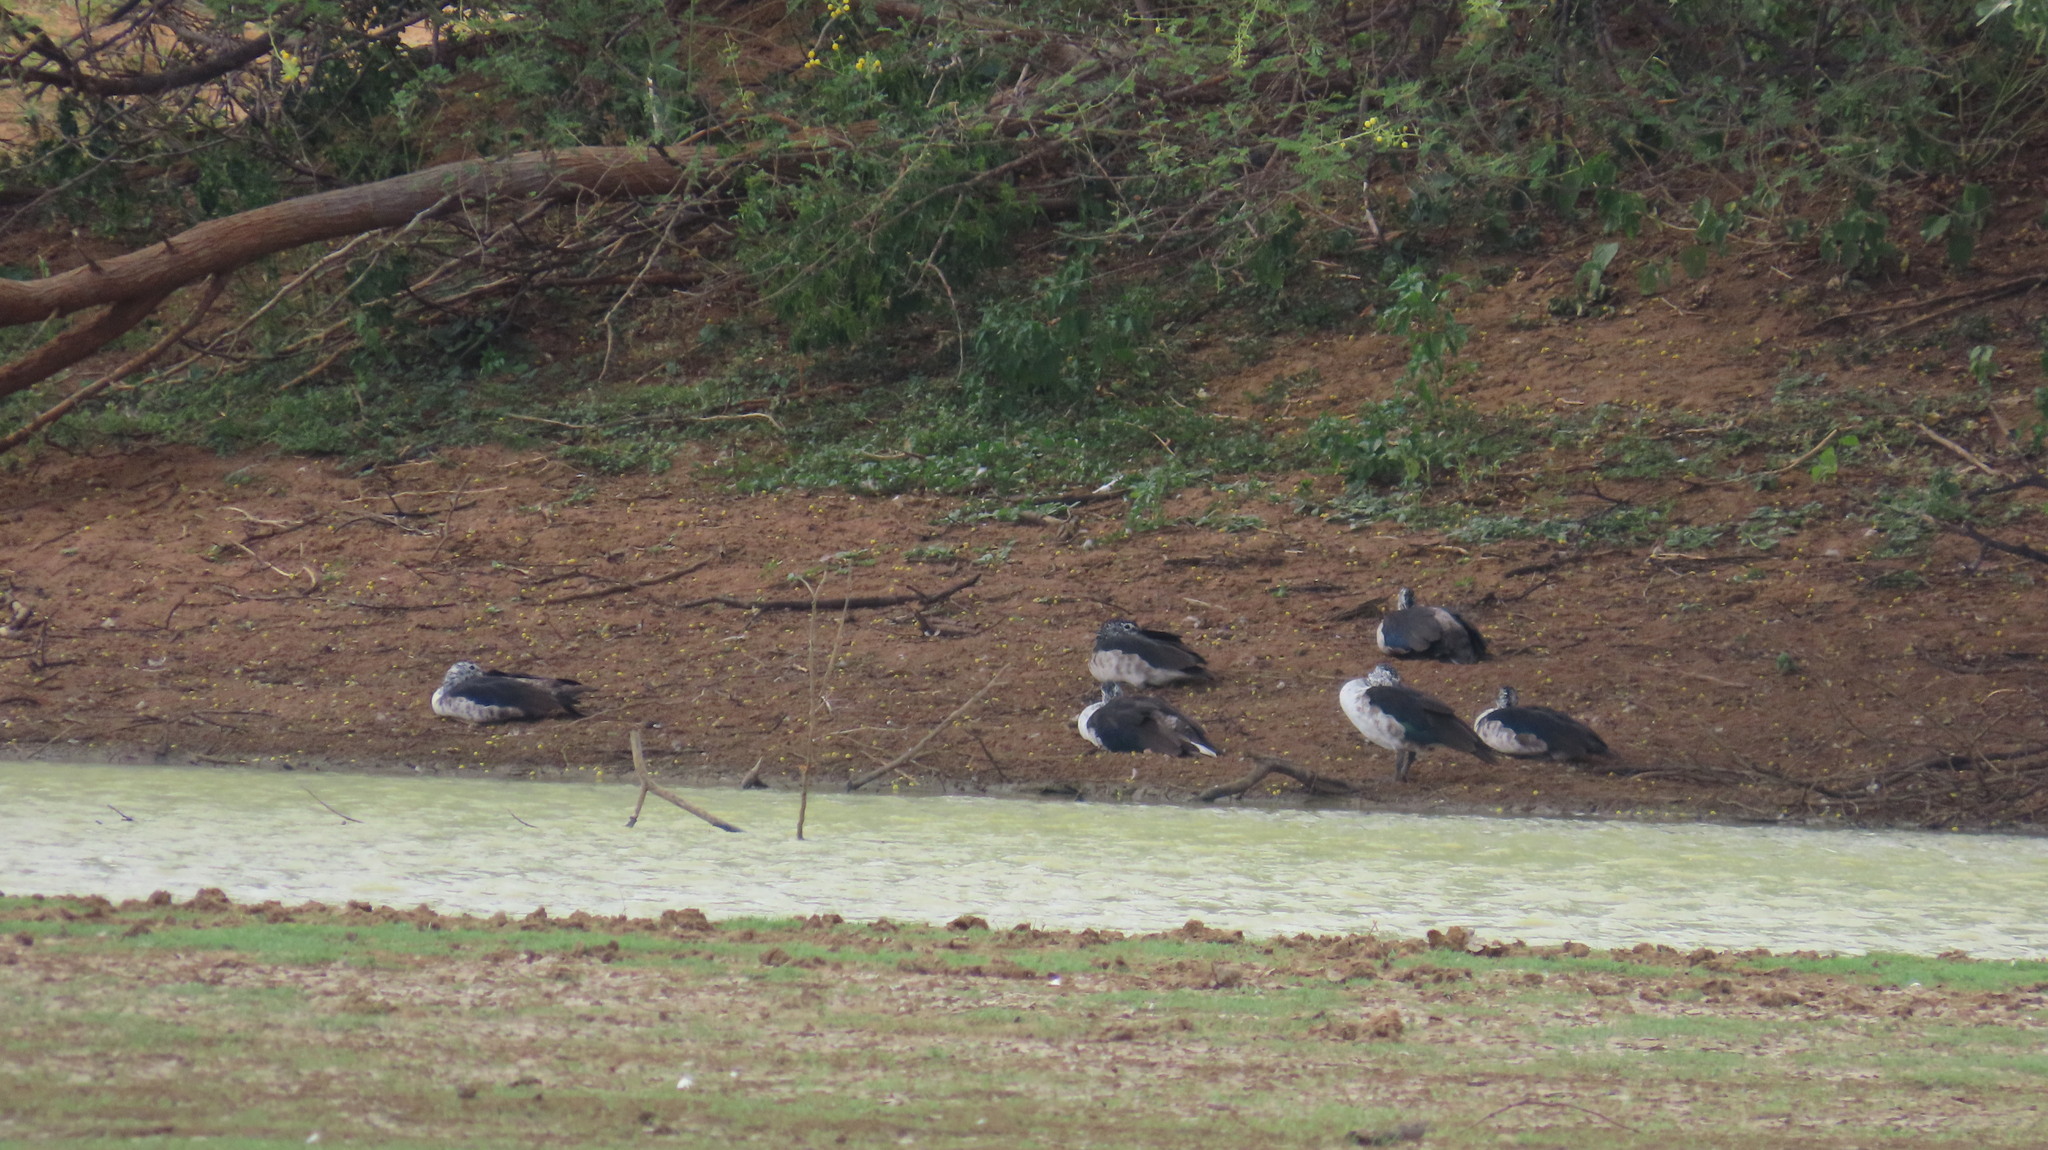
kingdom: Animalia
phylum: Chordata
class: Aves
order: Anseriformes
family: Anatidae
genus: Sarkidiornis
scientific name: Sarkidiornis melanotos
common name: Comb duck
